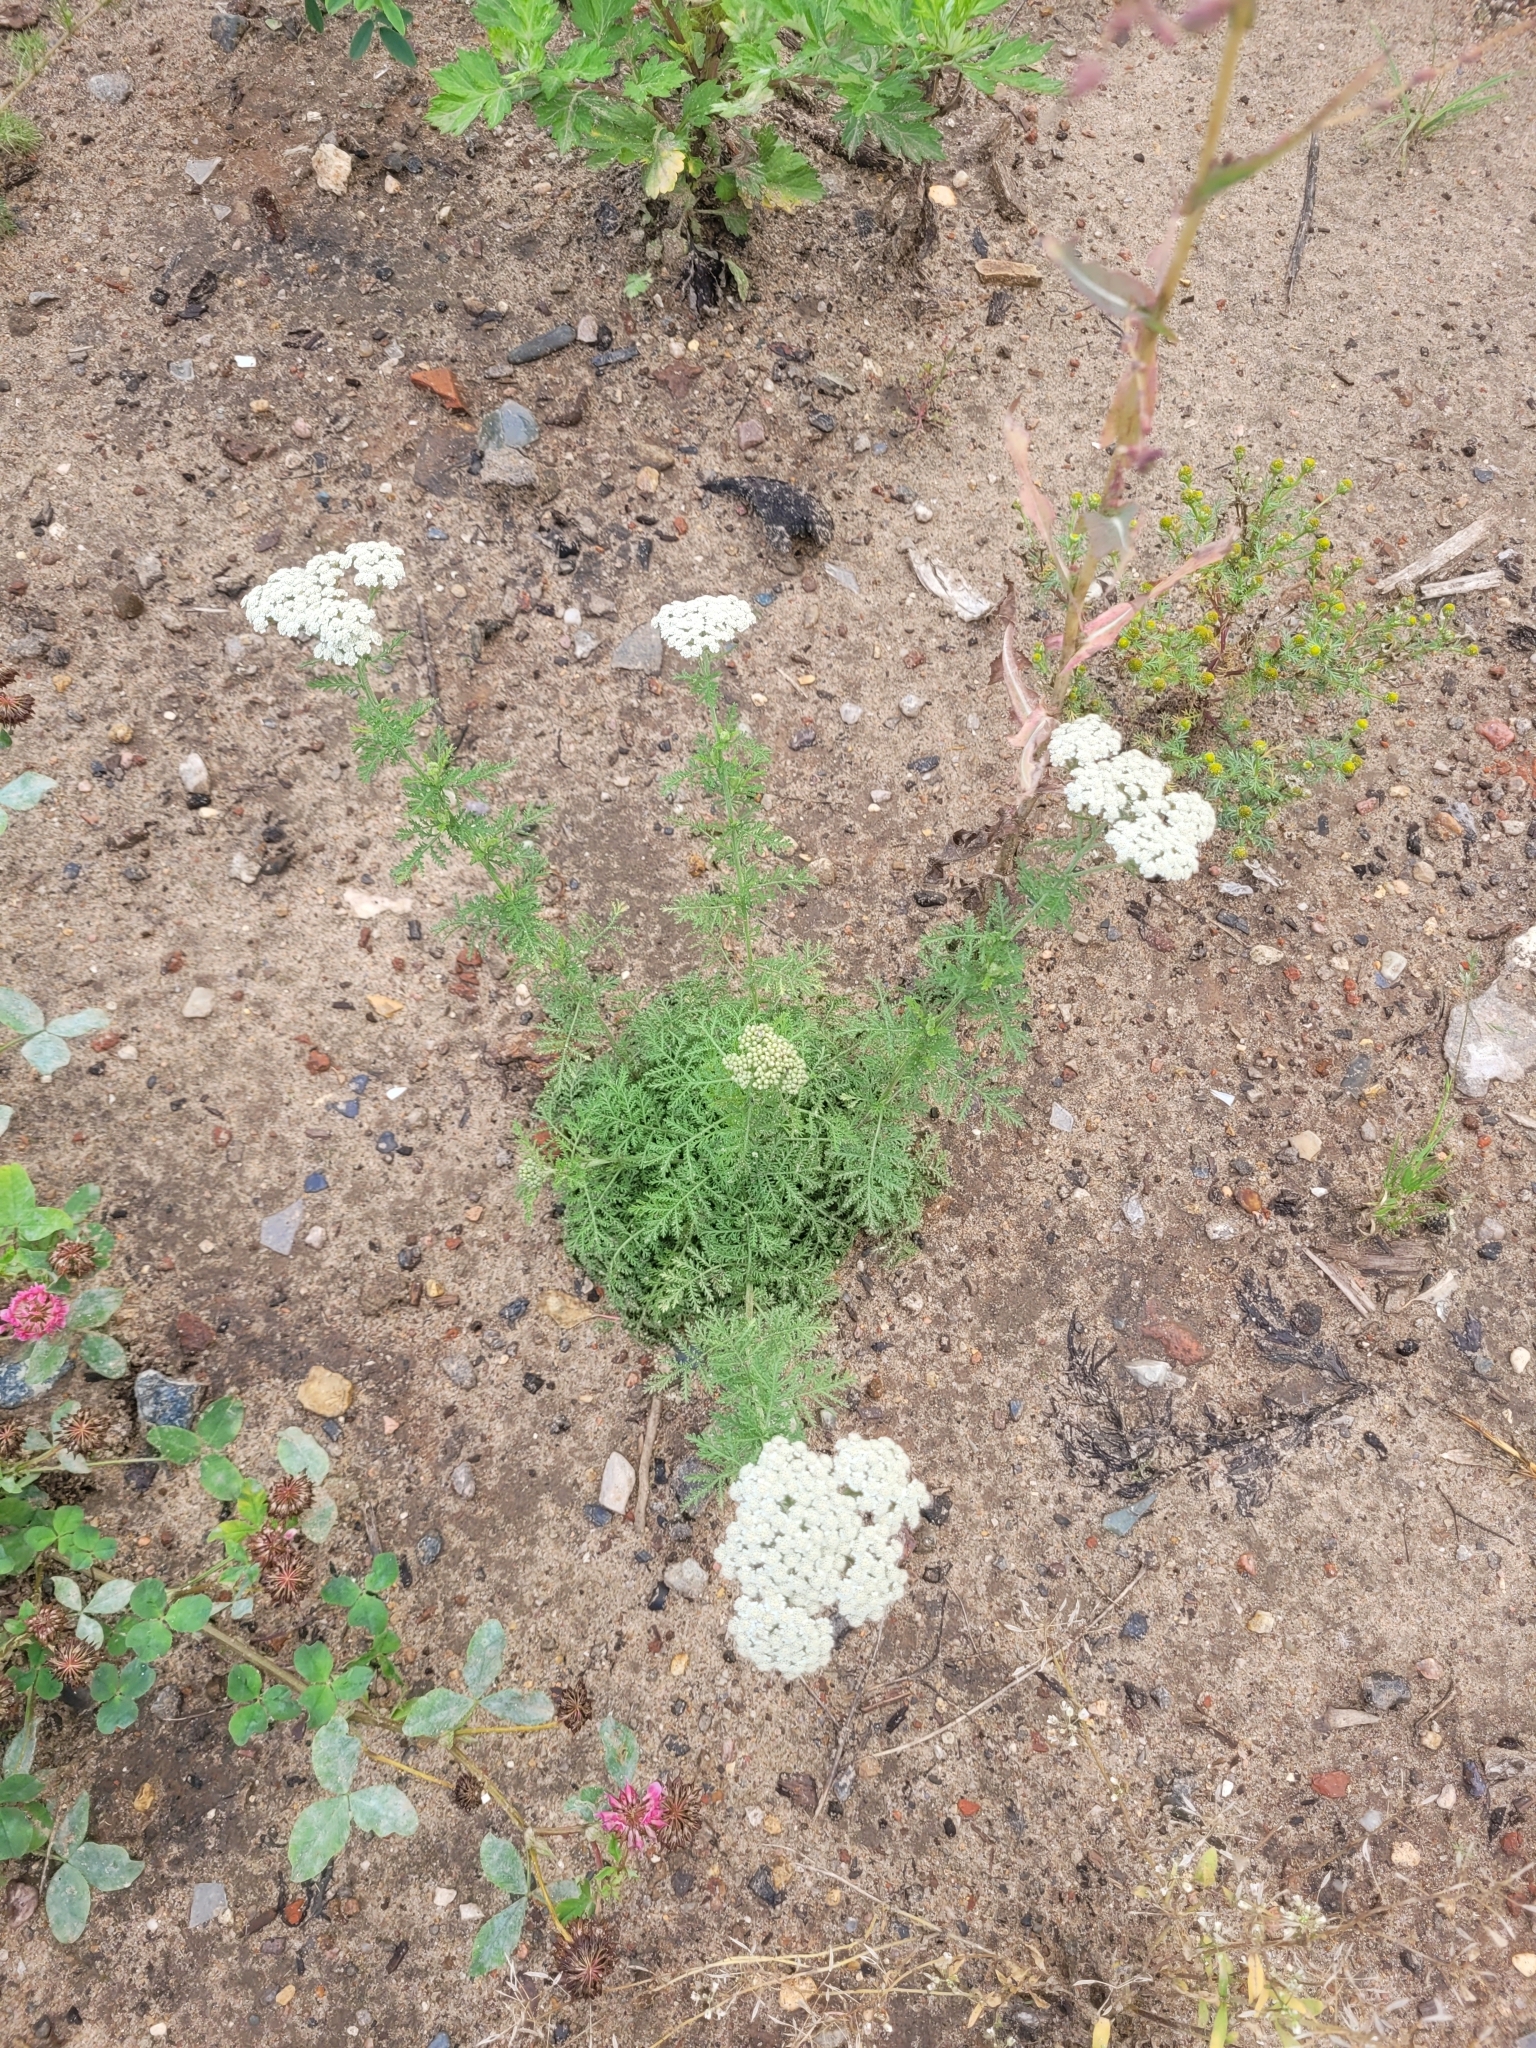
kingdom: Plantae
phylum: Tracheophyta
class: Magnoliopsida
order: Asterales
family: Asteraceae
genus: Achillea
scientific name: Achillea nobilis
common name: Noble yarrow
